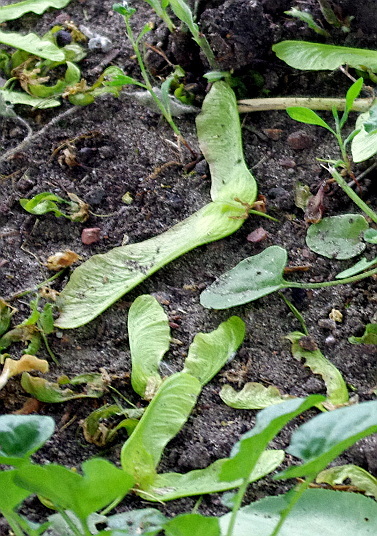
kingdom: Plantae
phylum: Tracheophyta
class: Magnoliopsida
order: Sapindales
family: Sapindaceae
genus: Acer
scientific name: Acer platanoides
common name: Norway maple
